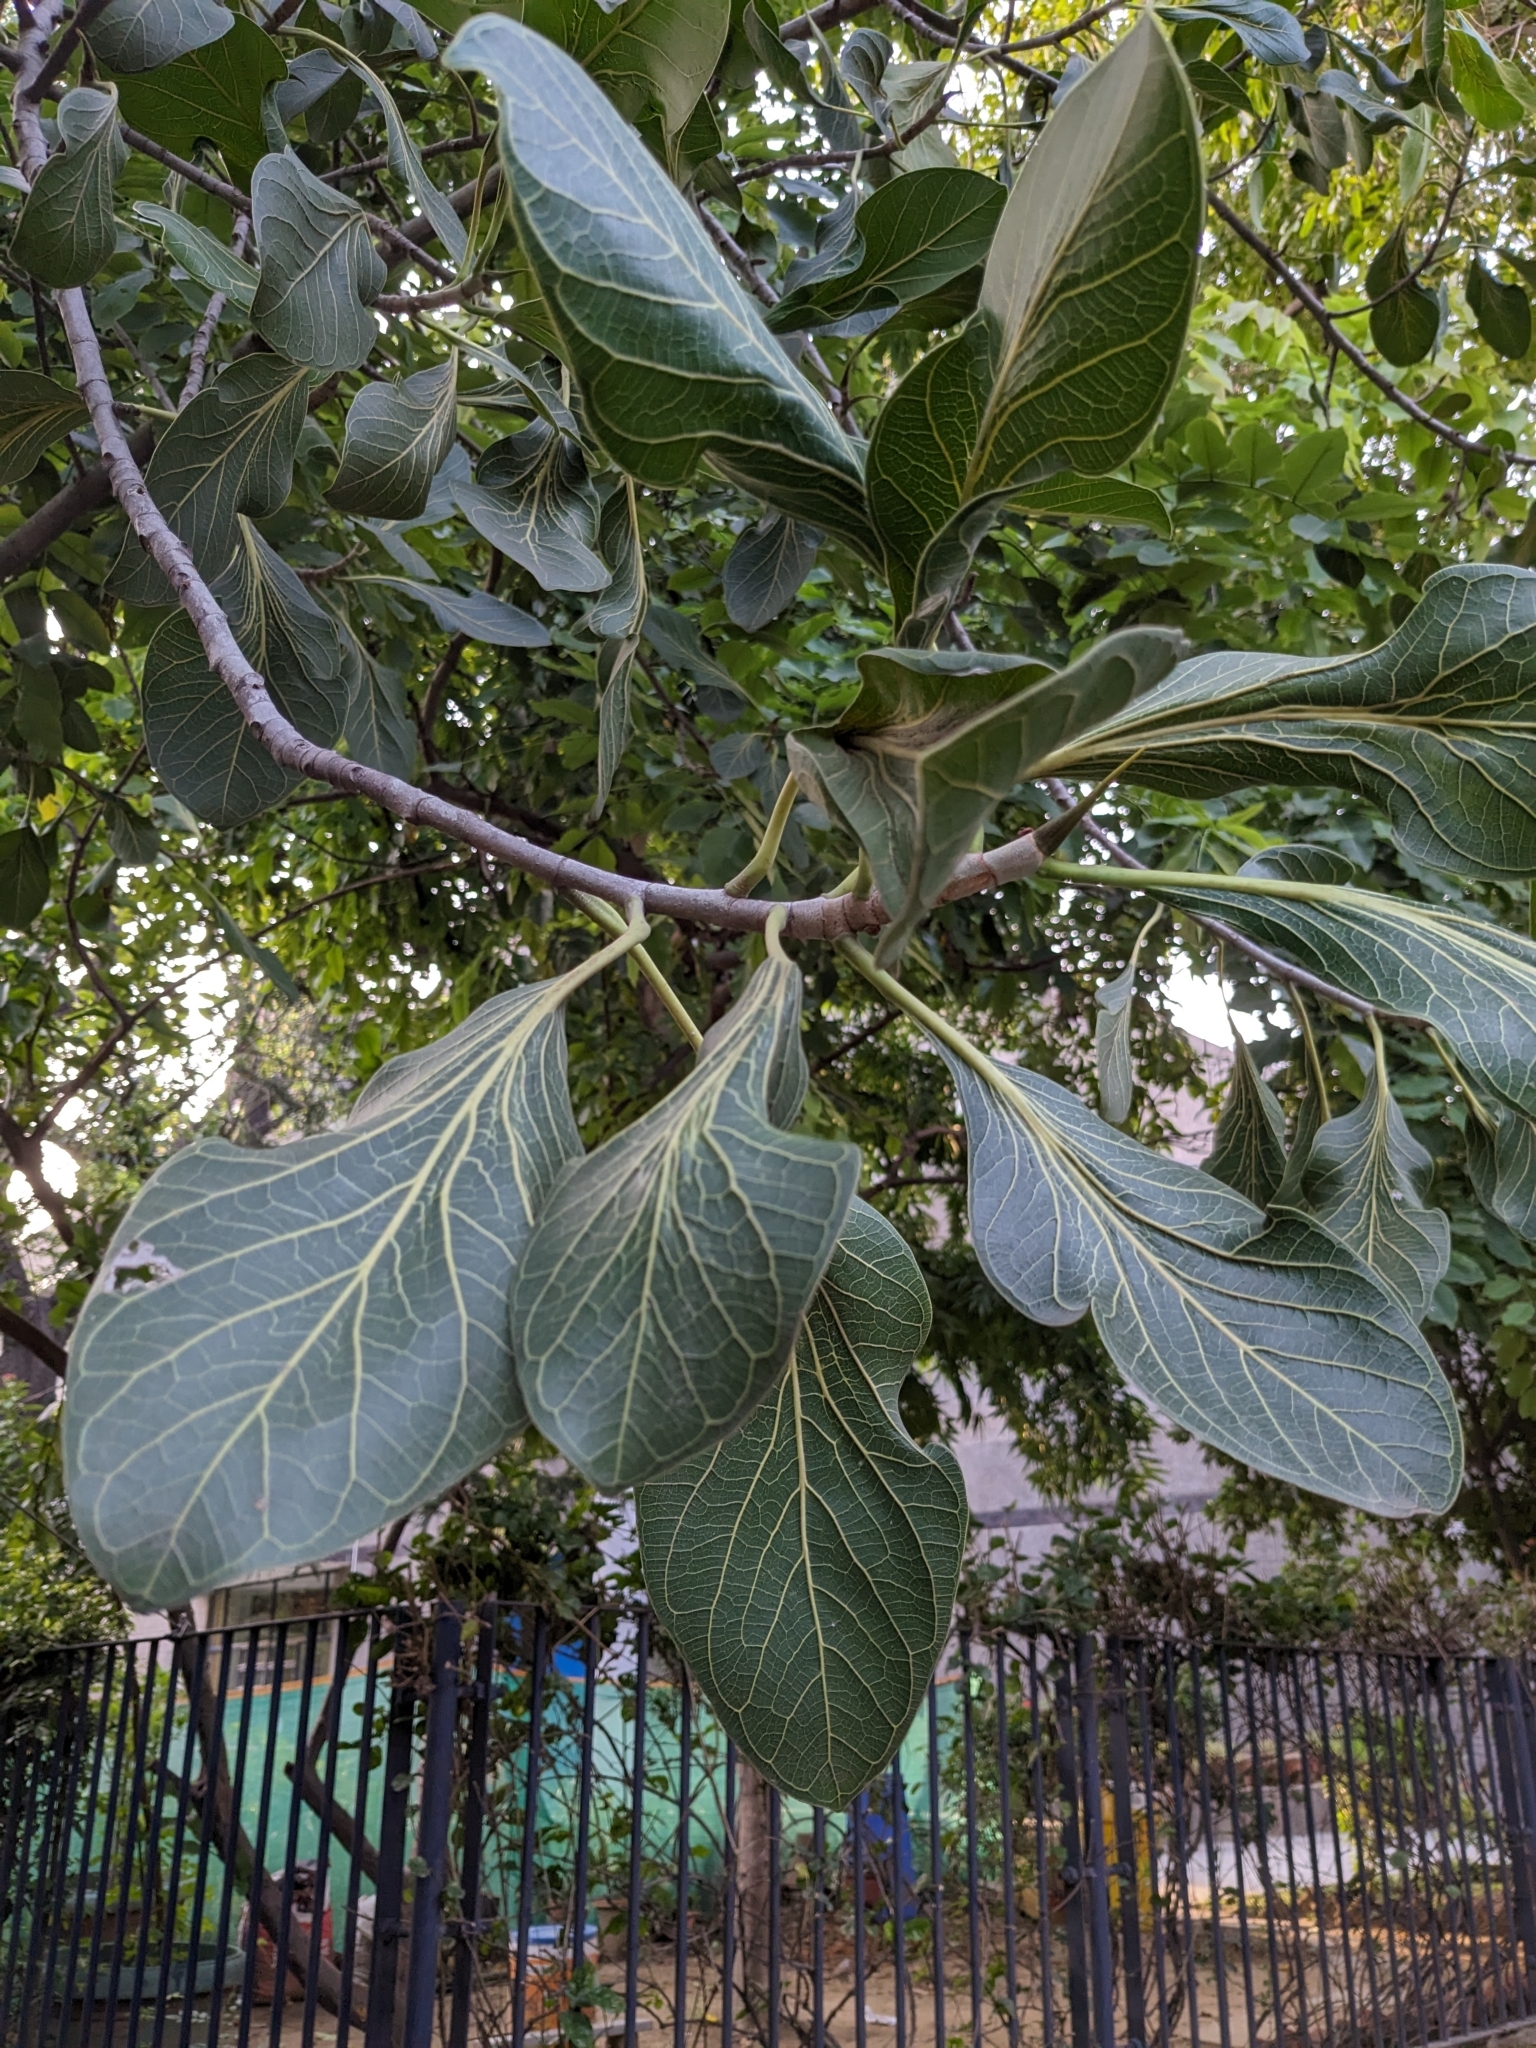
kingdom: Plantae
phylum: Tracheophyta
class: Magnoliopsida
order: Rosales
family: Moraceae
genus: Ficus
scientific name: Ficus krishnae
